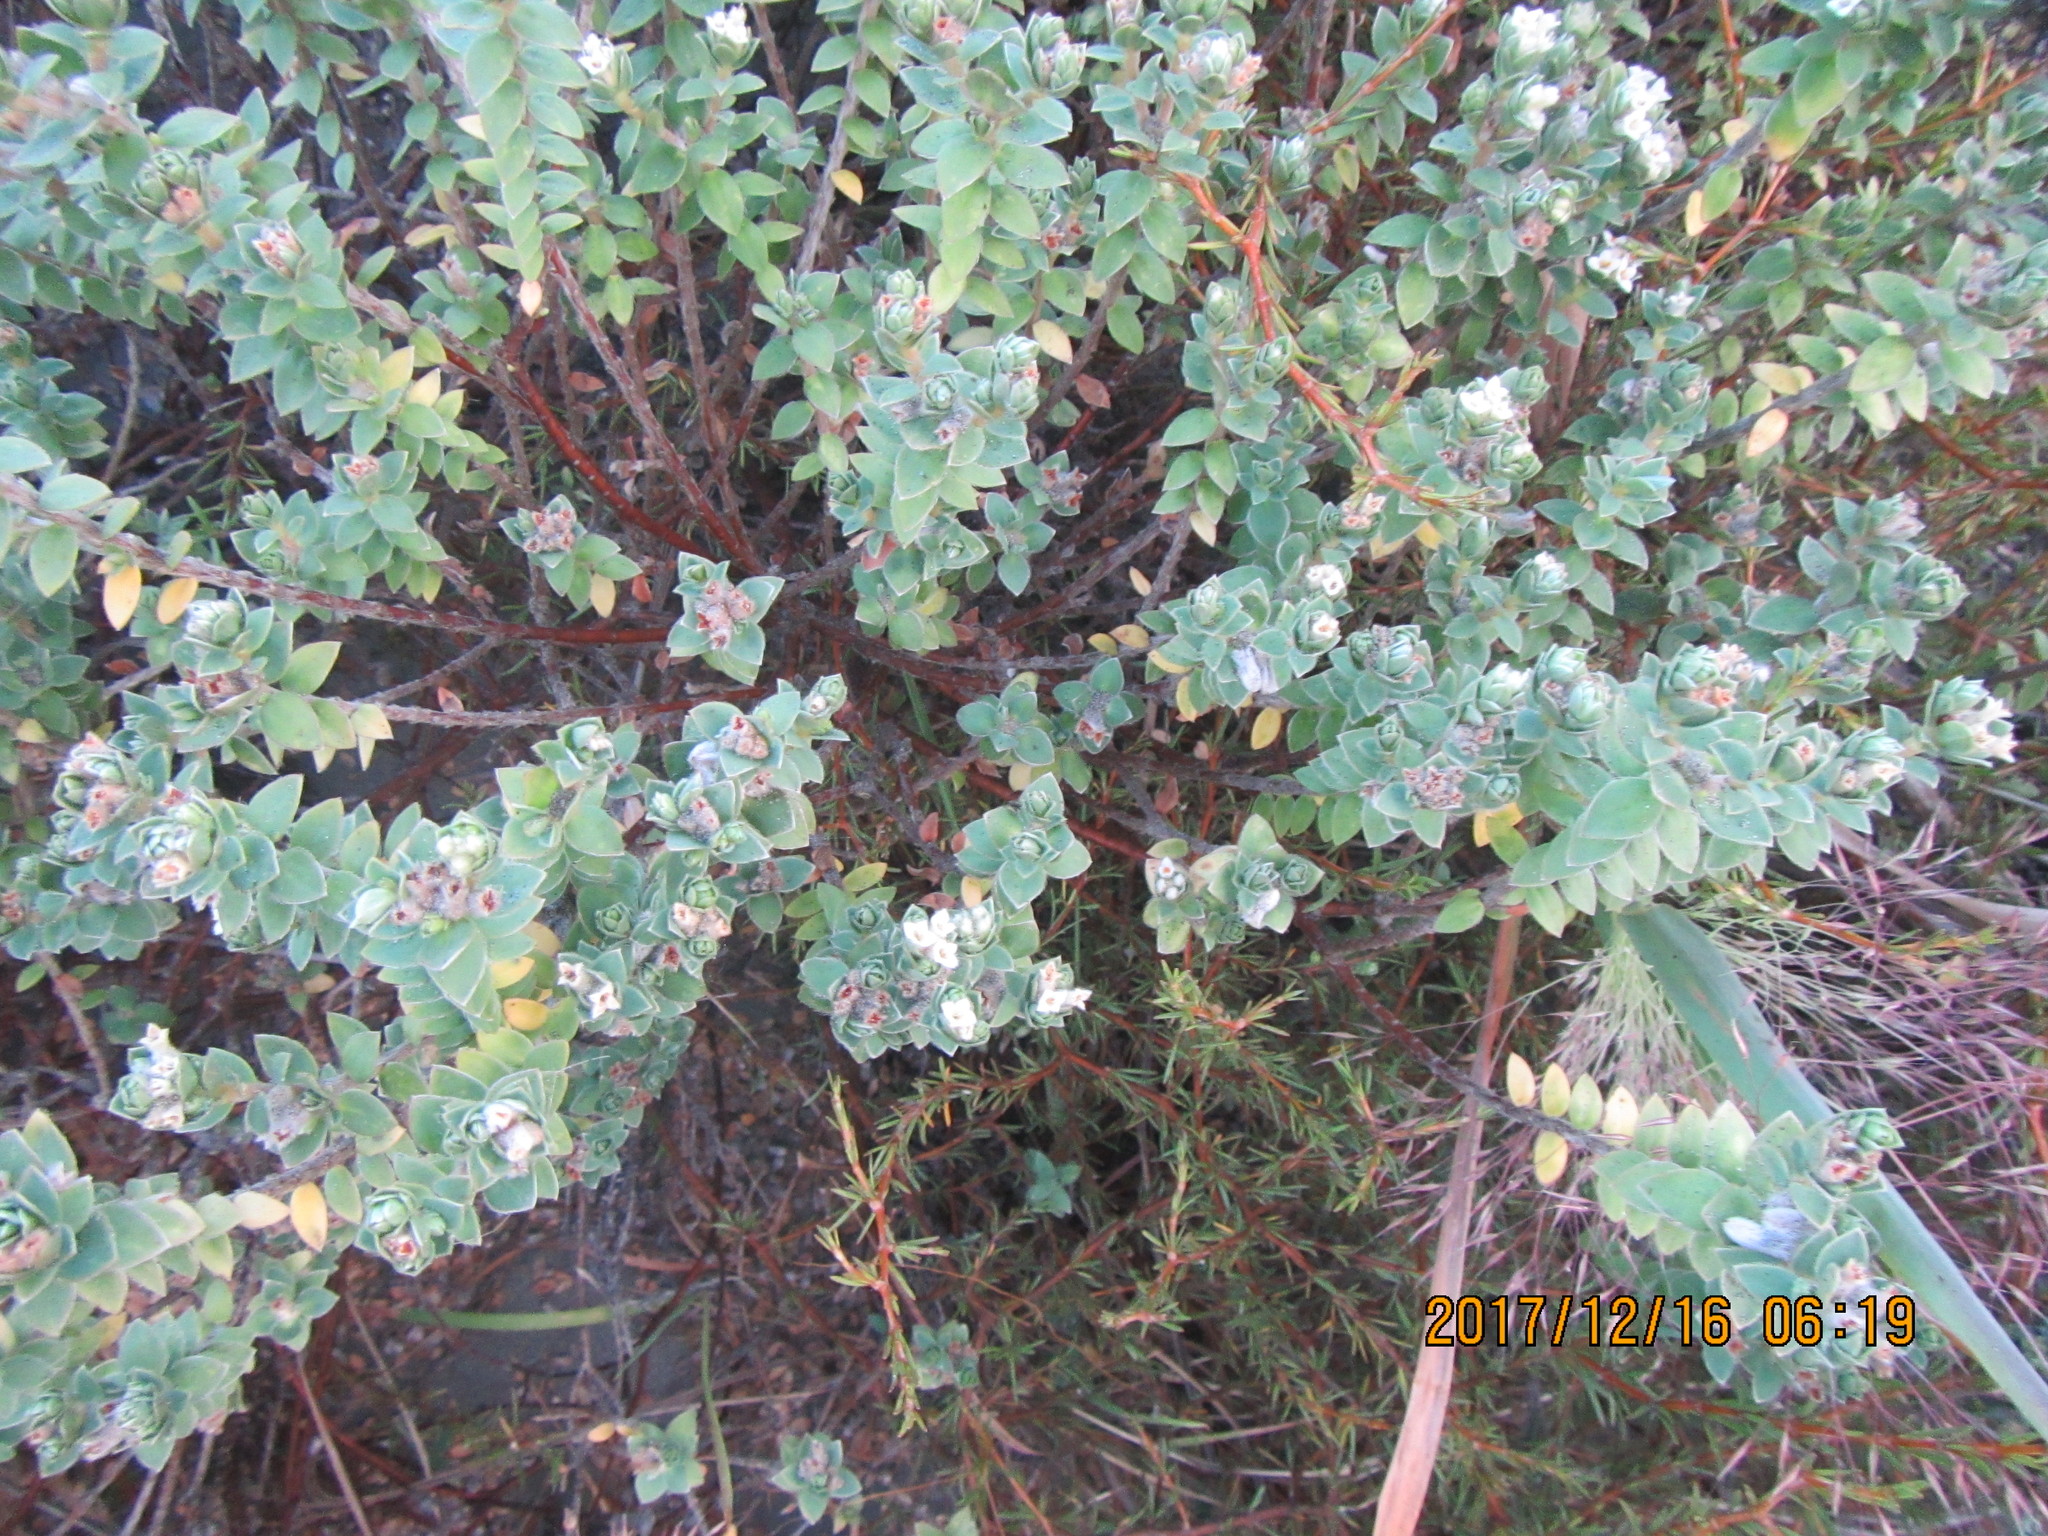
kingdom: Plantae
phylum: Tracheophyta
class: Magnoliopsida
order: Malvales
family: Thymelaeaceae
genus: Pimelea
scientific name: Pimelea villosa
